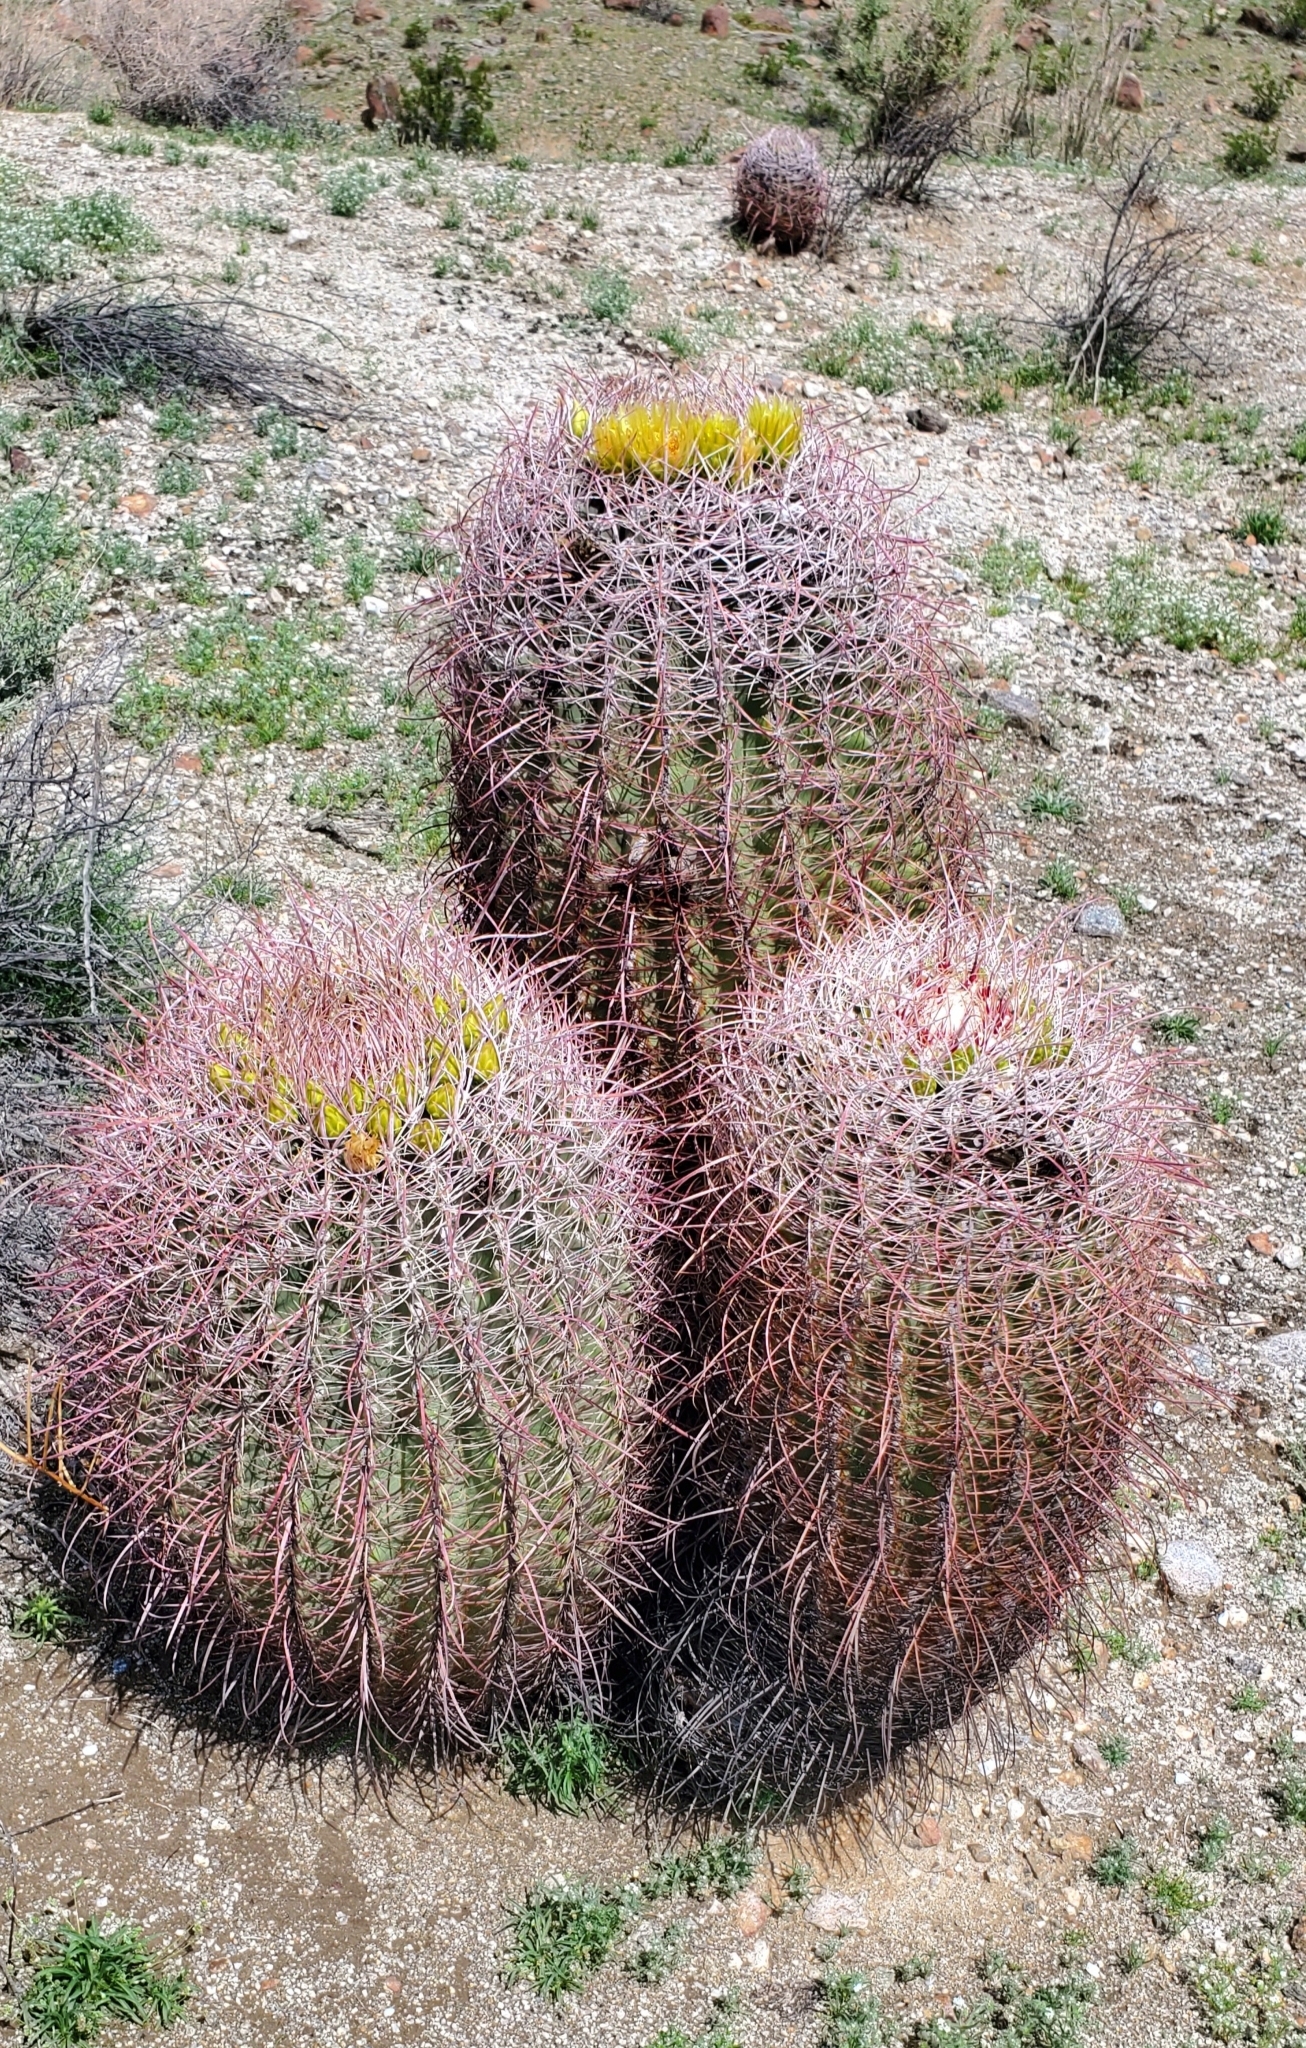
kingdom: Plantae
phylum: Tracheophyta
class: Magnoliopsida
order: Caryophyllales
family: Cactaceae
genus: Ferocactus
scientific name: Ferocactus cylindraceus
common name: California barrel cactus
